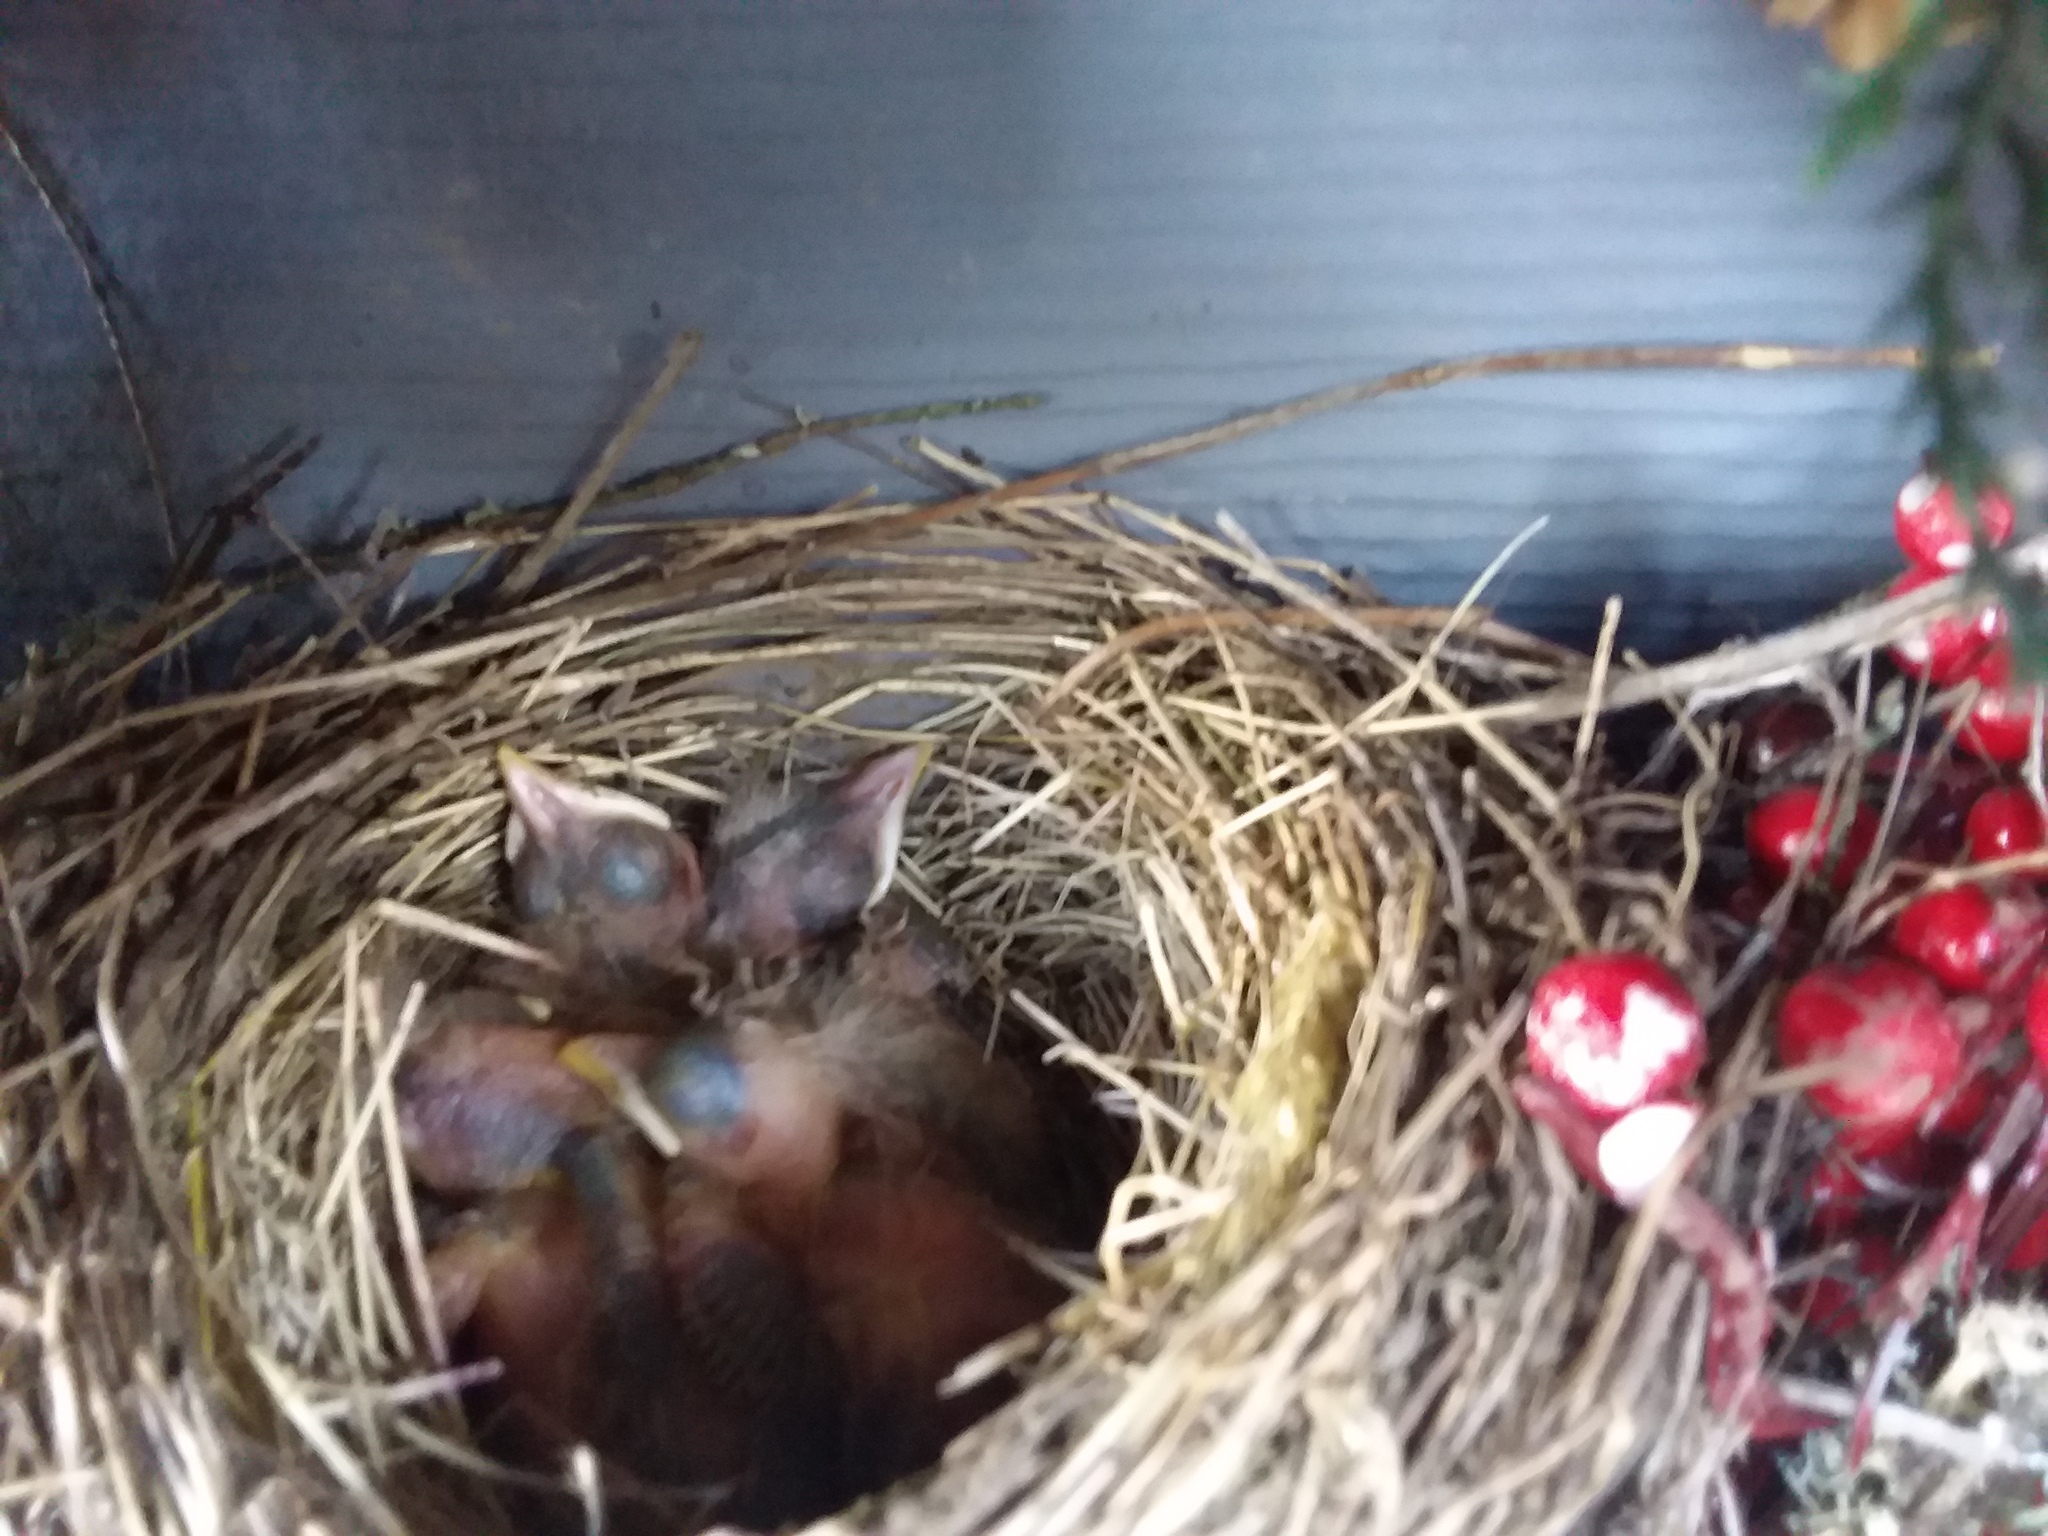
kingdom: Animalia
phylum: Chordata
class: Aves
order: Passeriformes
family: Turdidae
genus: Turdus
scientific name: Turdus migratorius
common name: American robin
